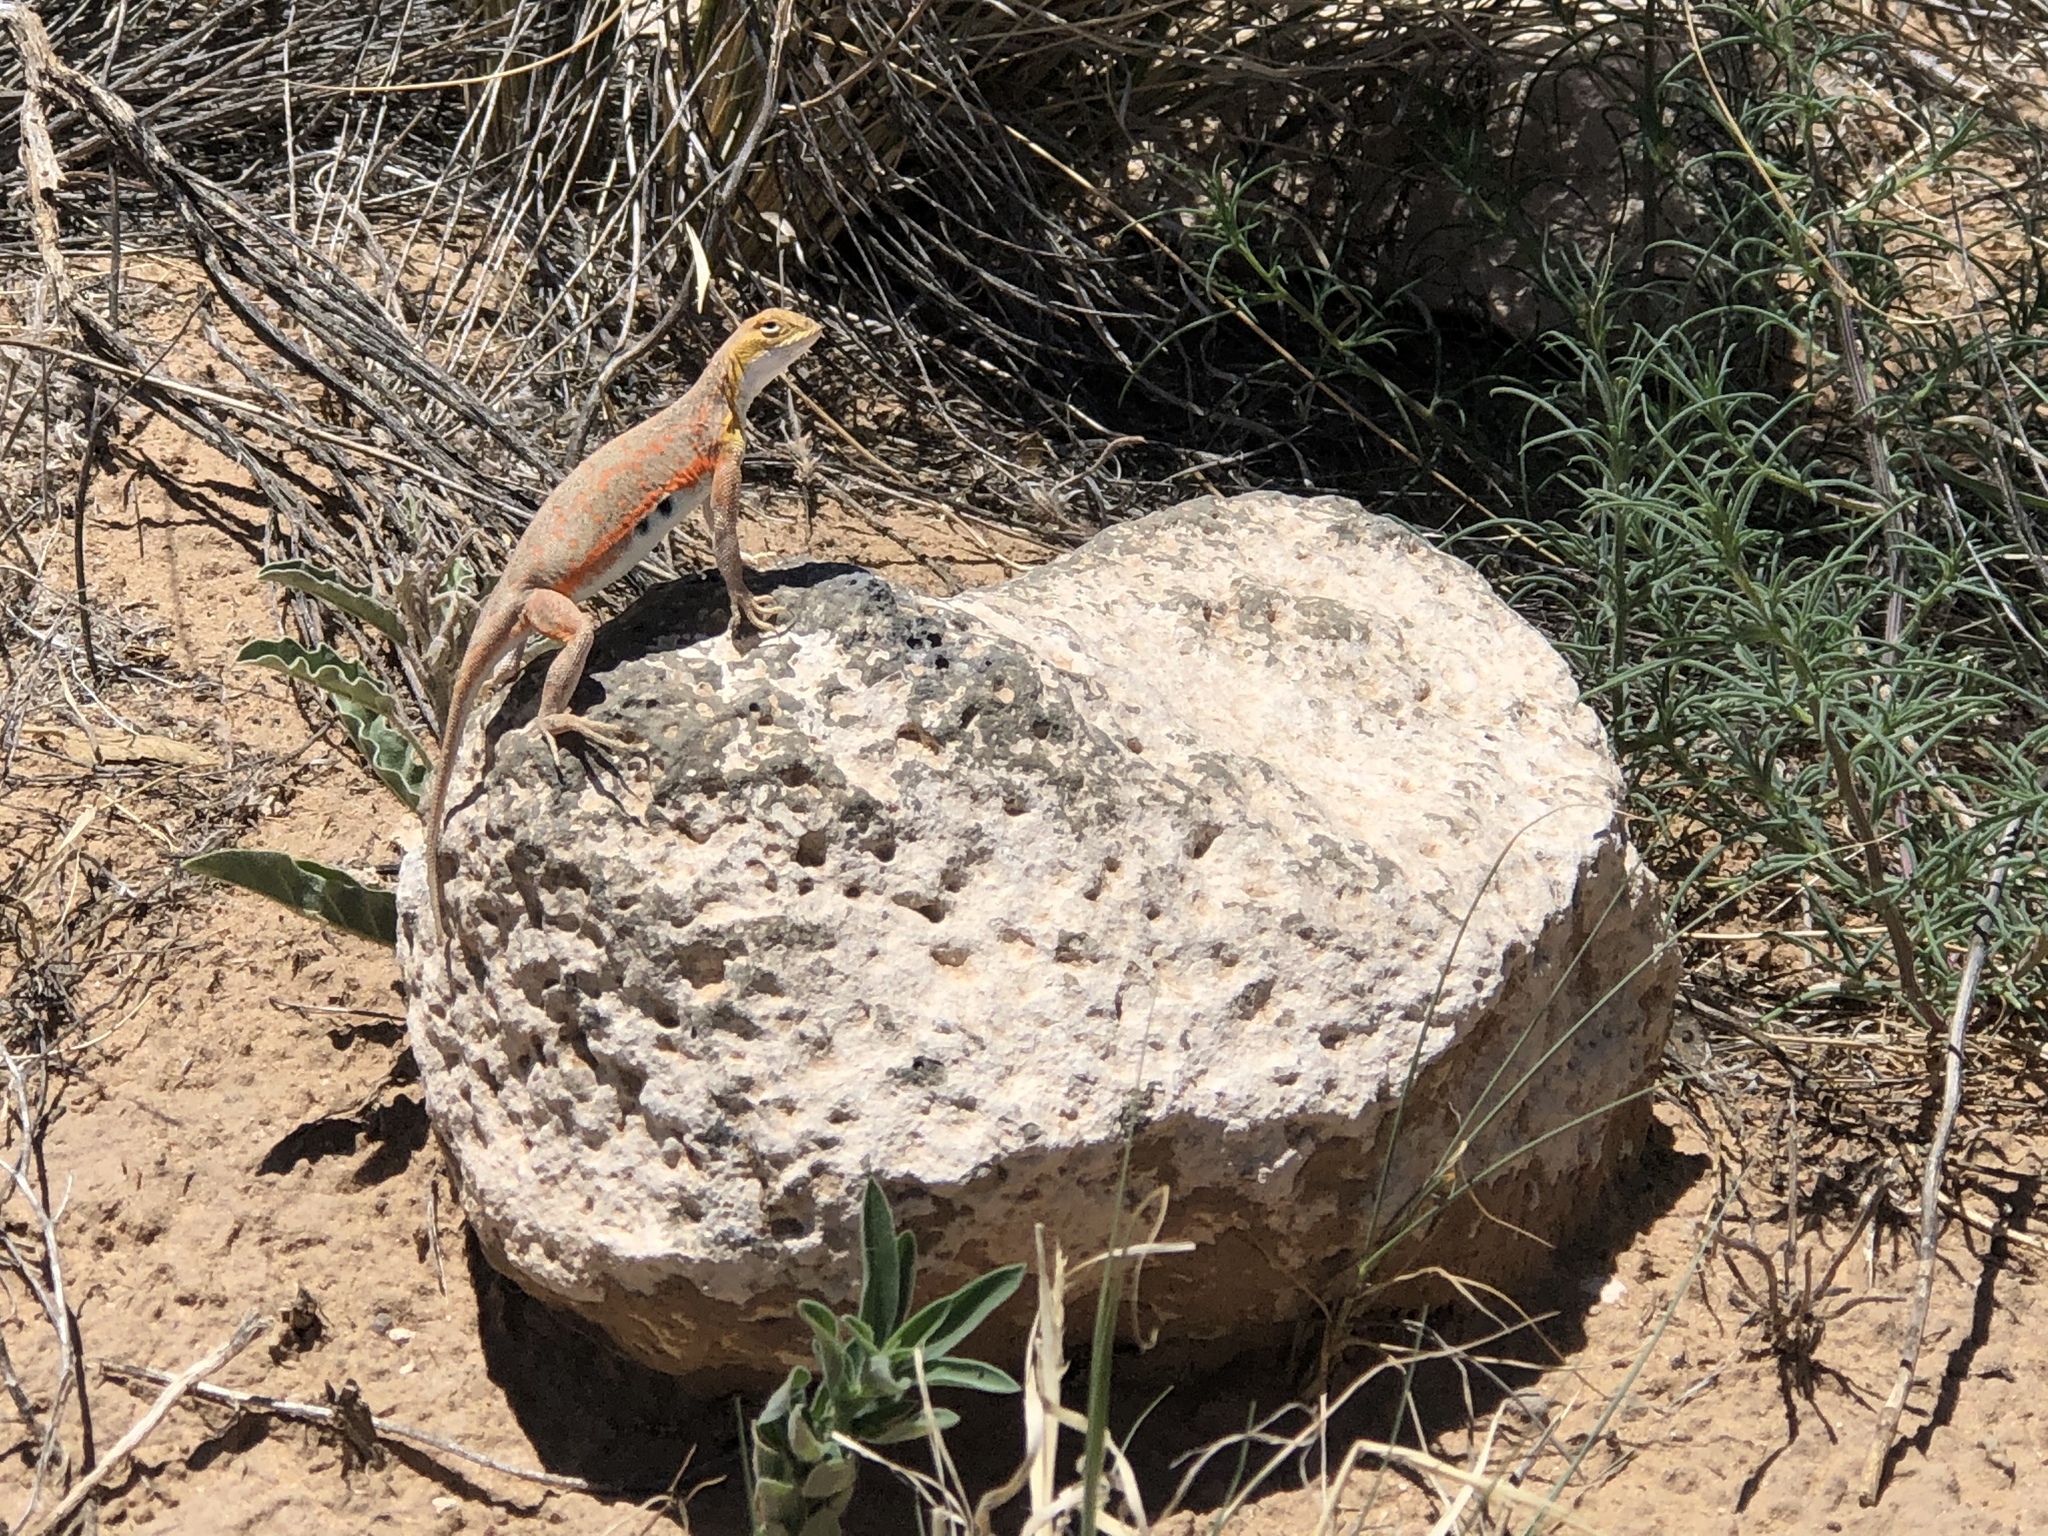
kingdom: Animalia
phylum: Chordata
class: Squamata
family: Phrynosomatidae
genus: Holbrookia
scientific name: Holbrookia maculata
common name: Lesser earless lizard
